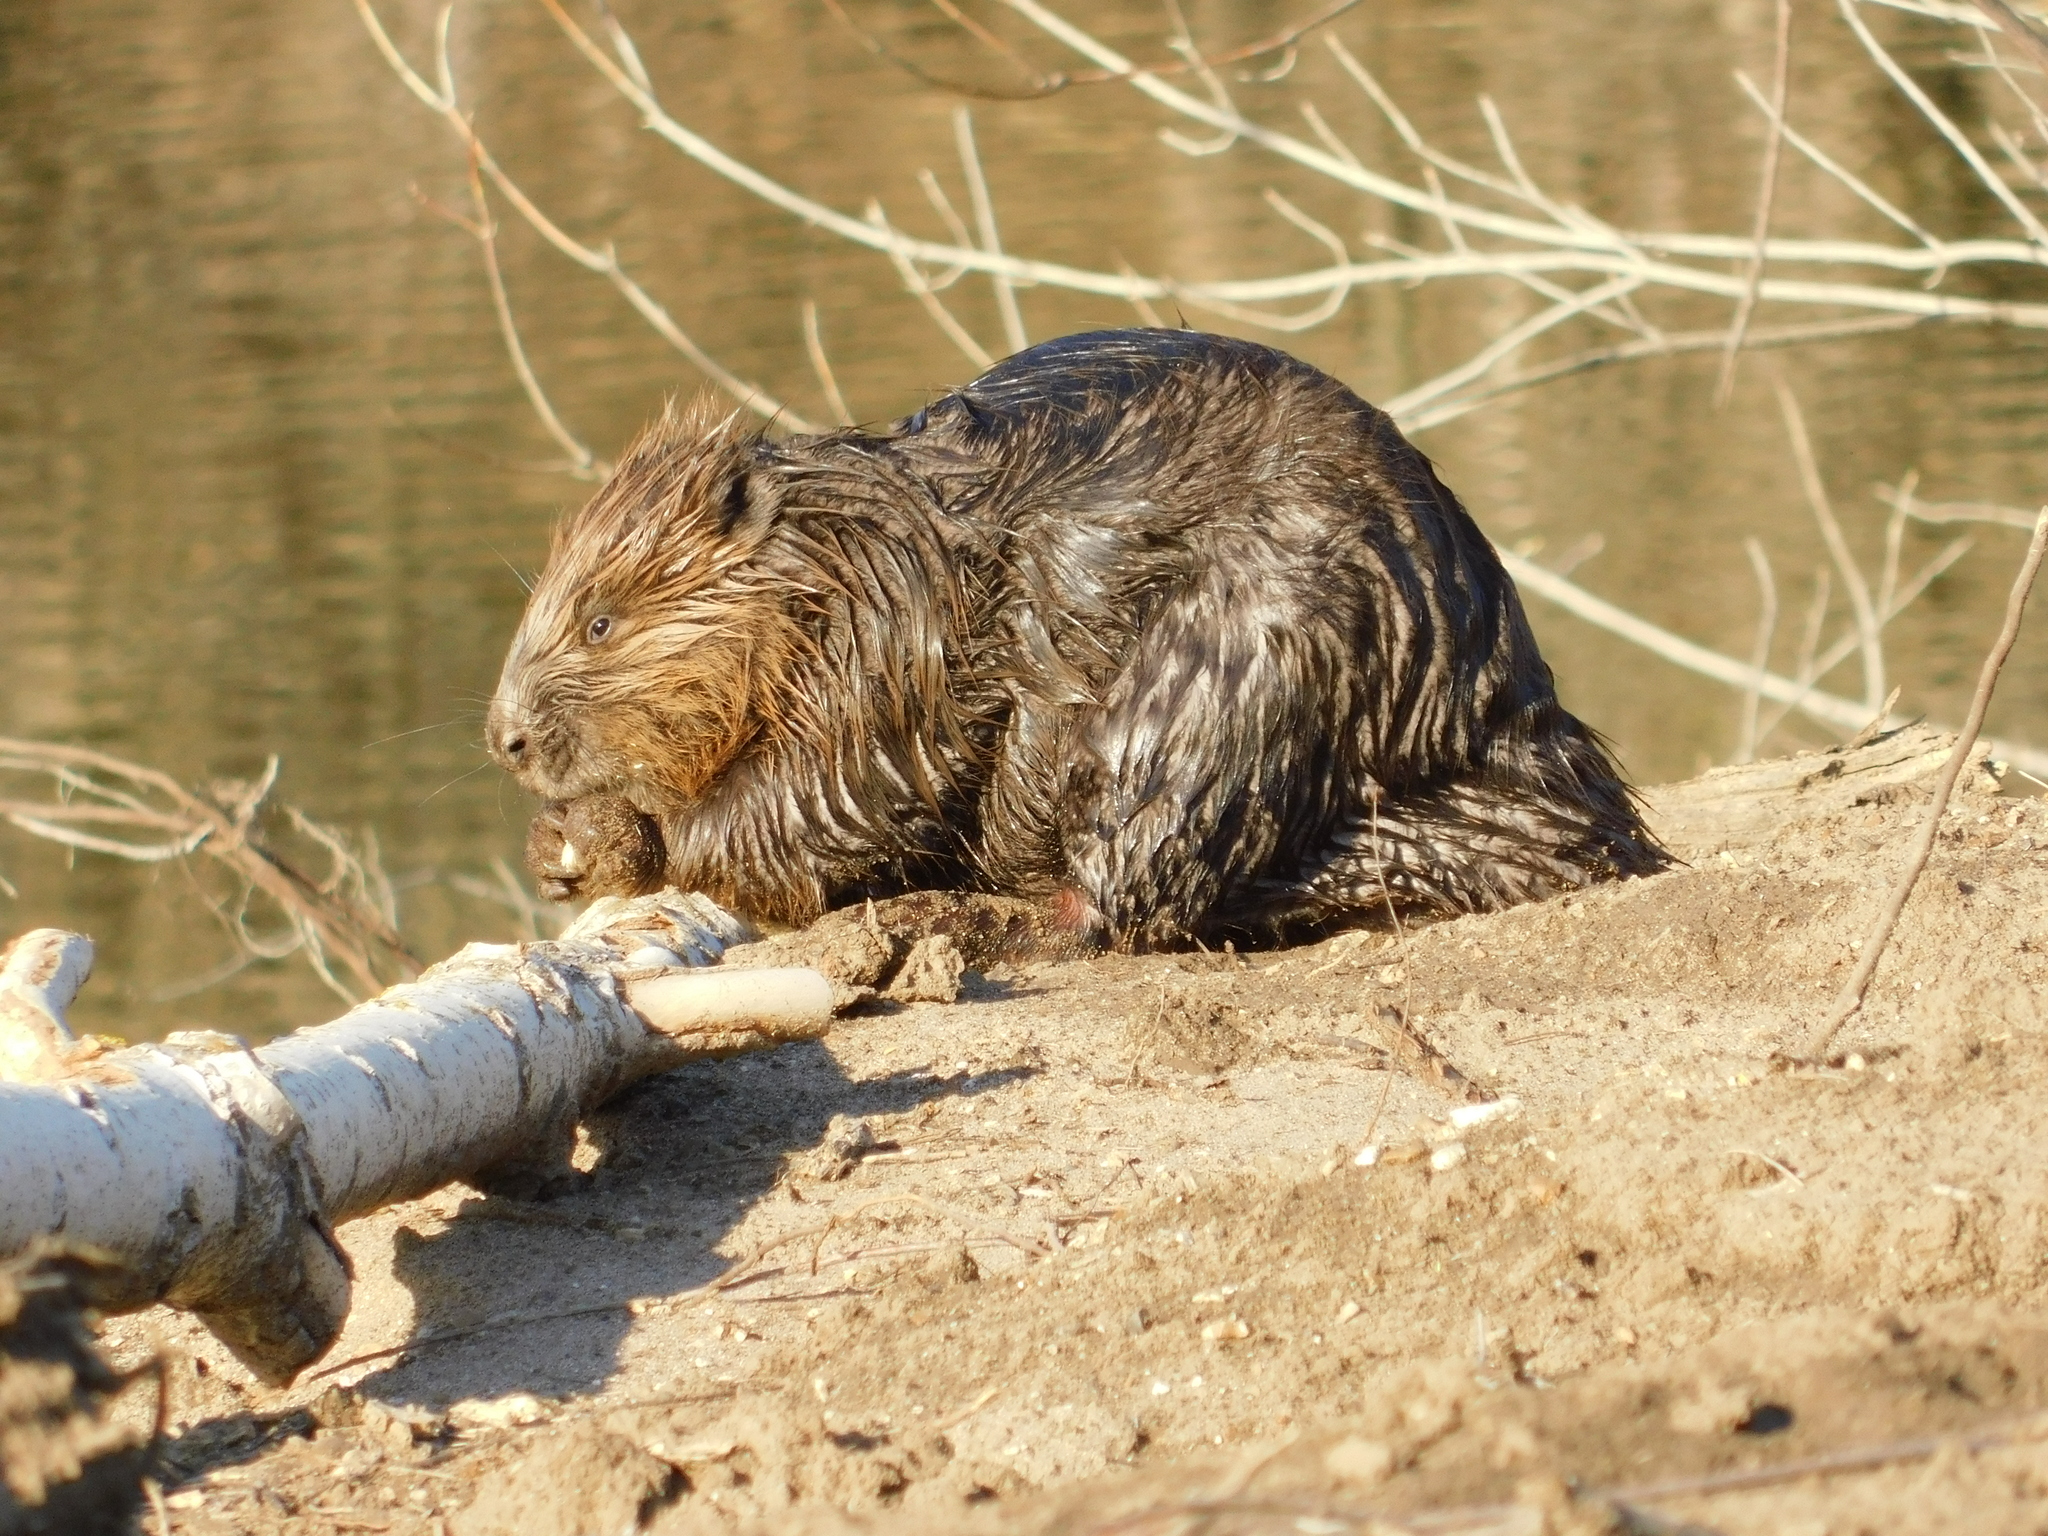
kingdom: Animalia
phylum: Chordata
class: Mammalia
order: Rodentia
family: Castoridae
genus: Castor
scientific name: Castor fiber
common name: Eurasian beaver
